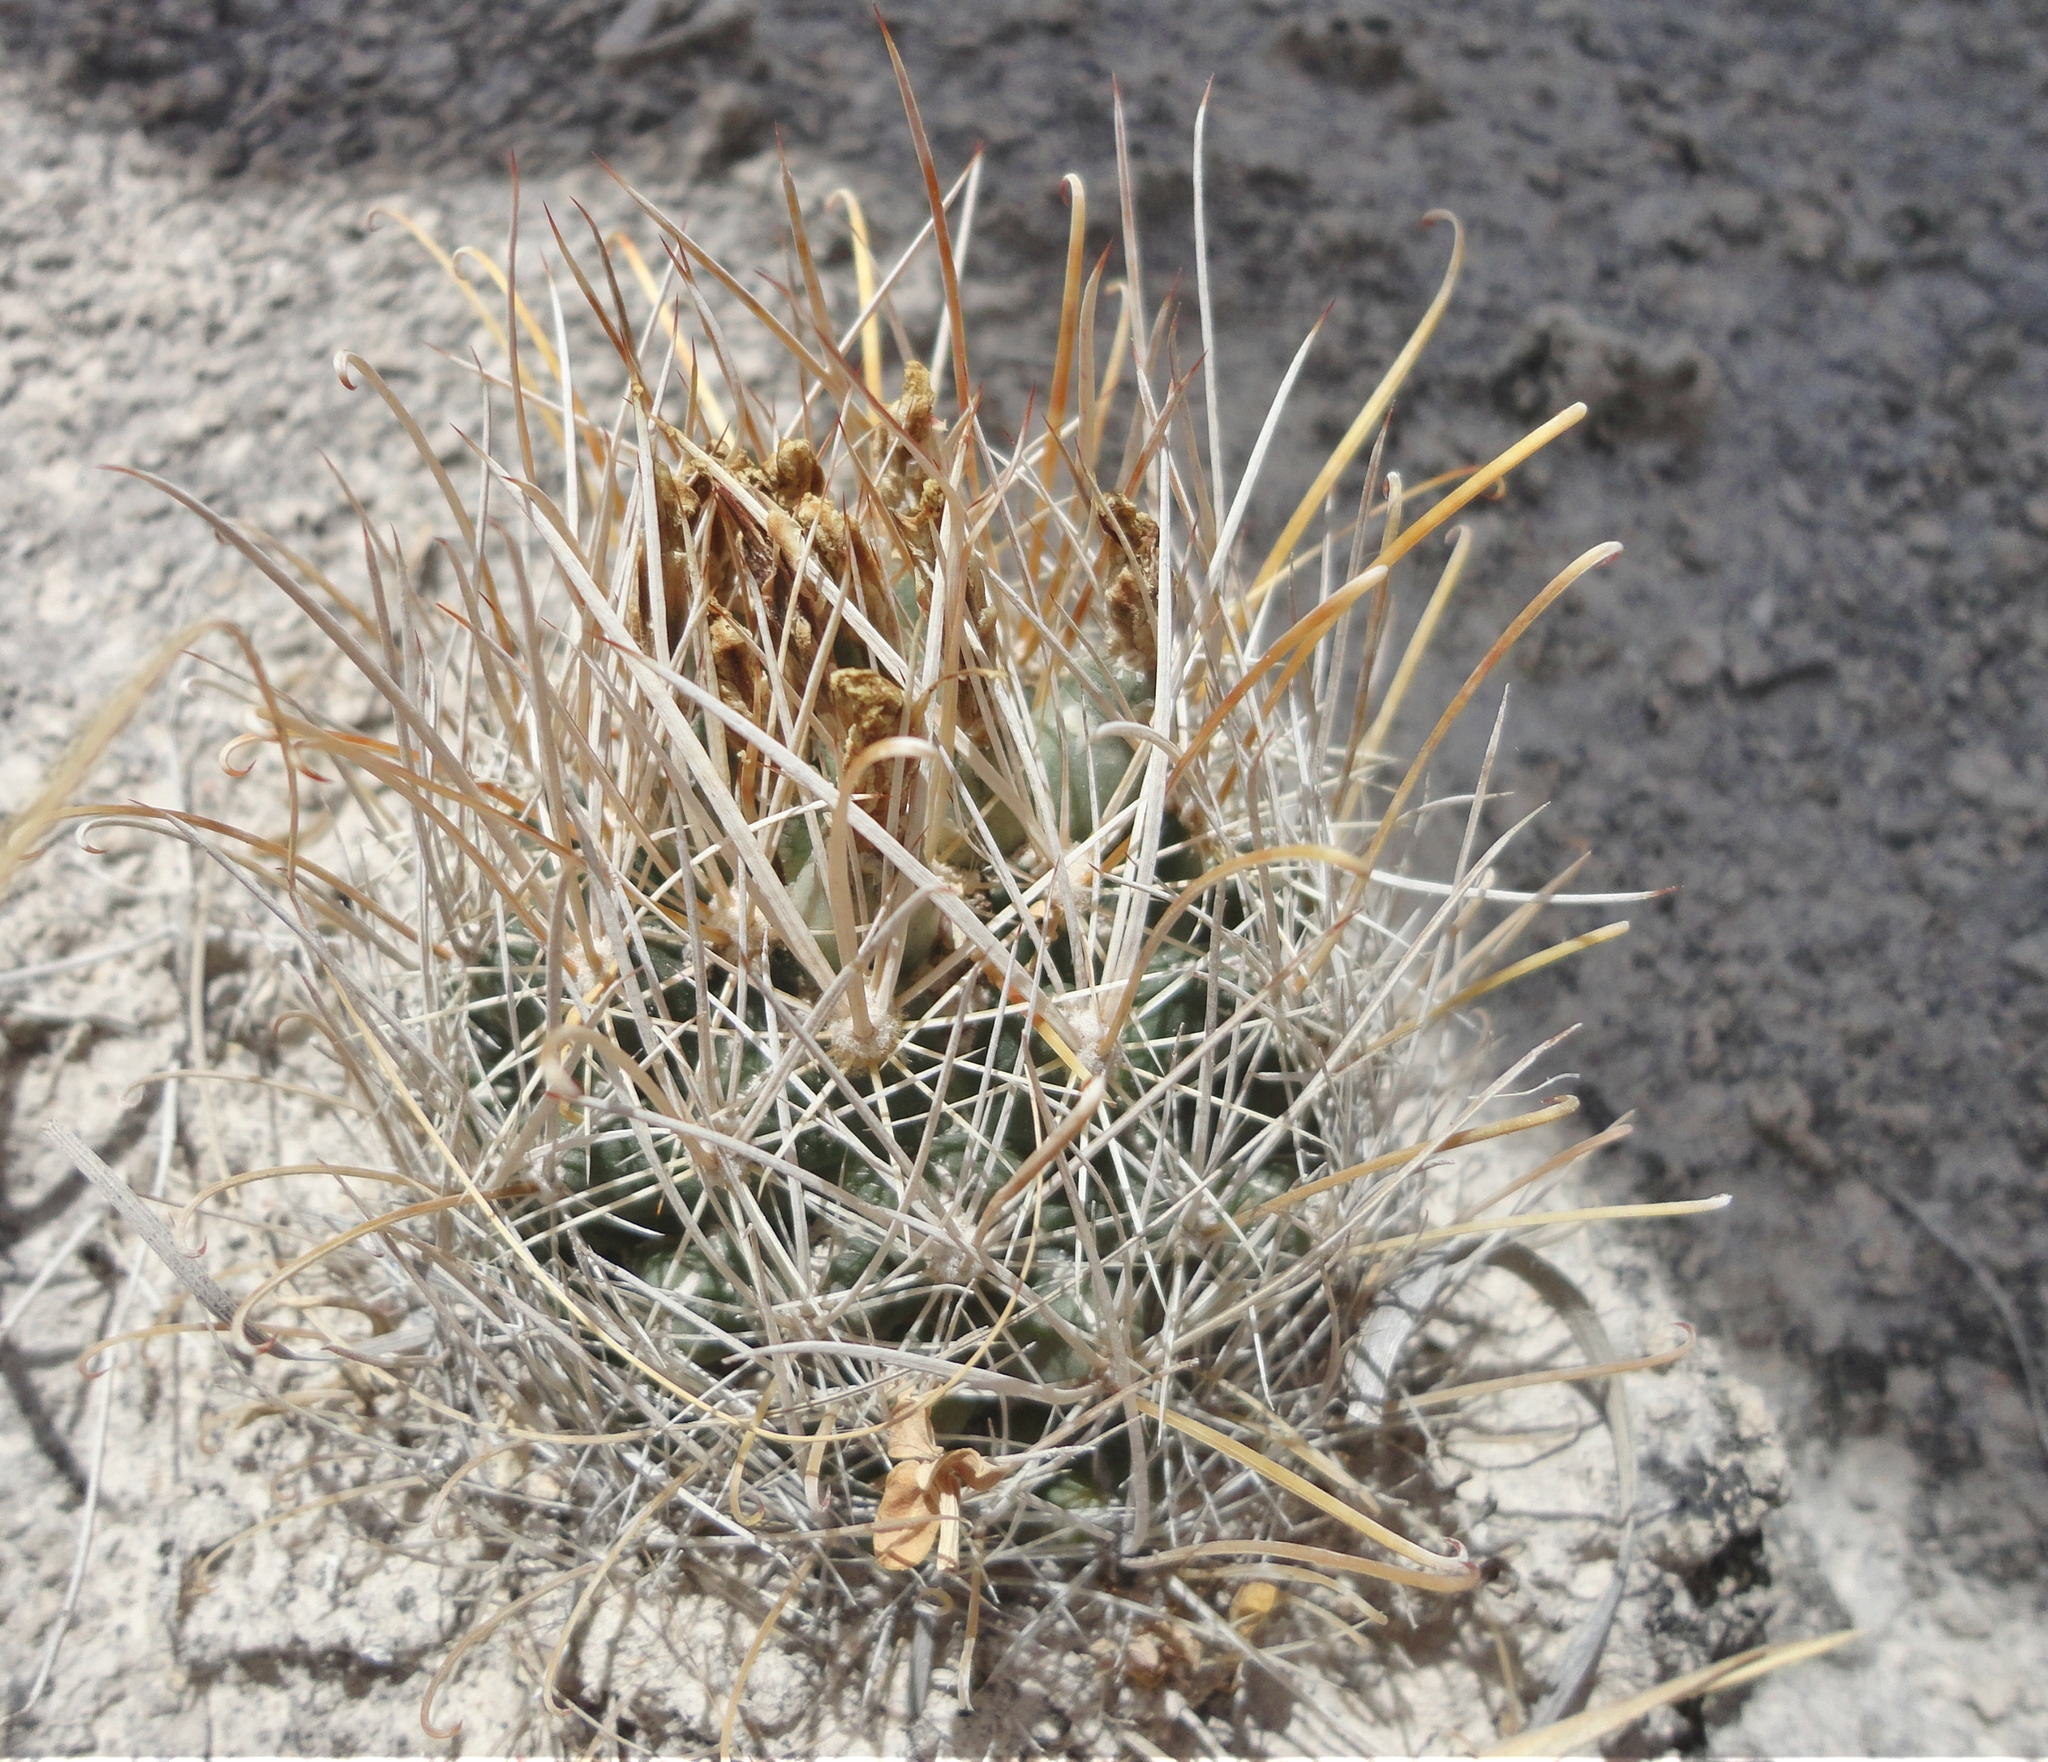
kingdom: Plantae
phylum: Tracheophyta
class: Magnoliopsida
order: Caryophyllales
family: Cactaceae
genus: Sclerocactus
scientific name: Sclerocactus pinkavanus
